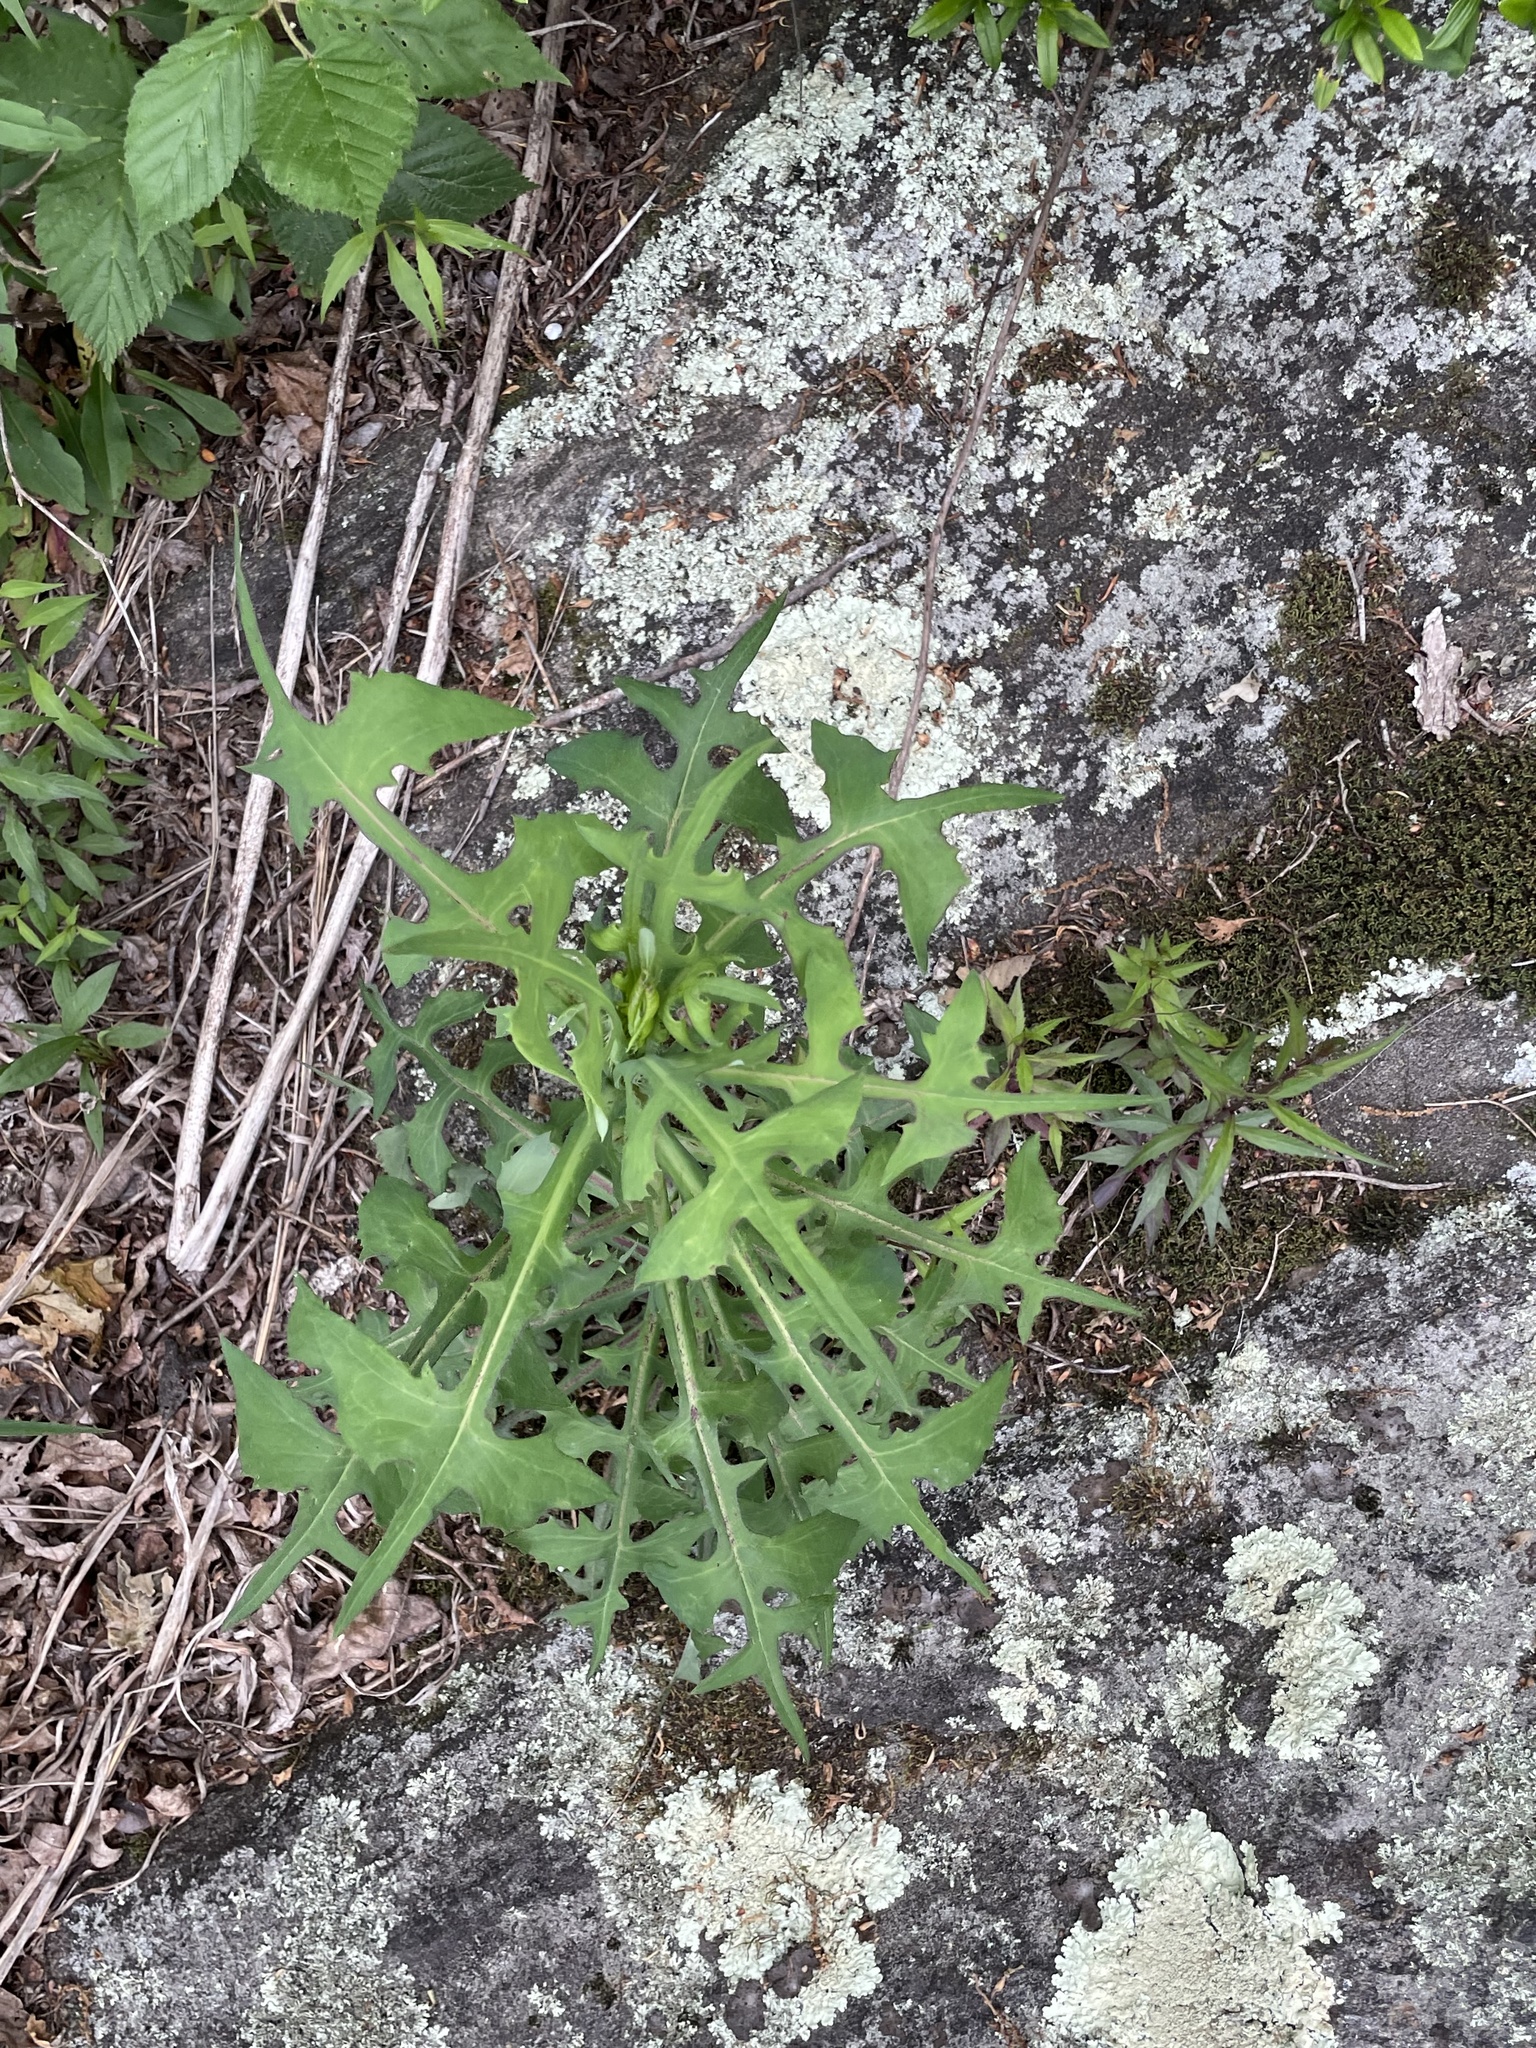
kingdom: Plantae
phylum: Tracheophyta
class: Magnoliopsida
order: Asterales
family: Asteraceae
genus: Lactuca
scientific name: Lactuca canadensis
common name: Canada lettuce
